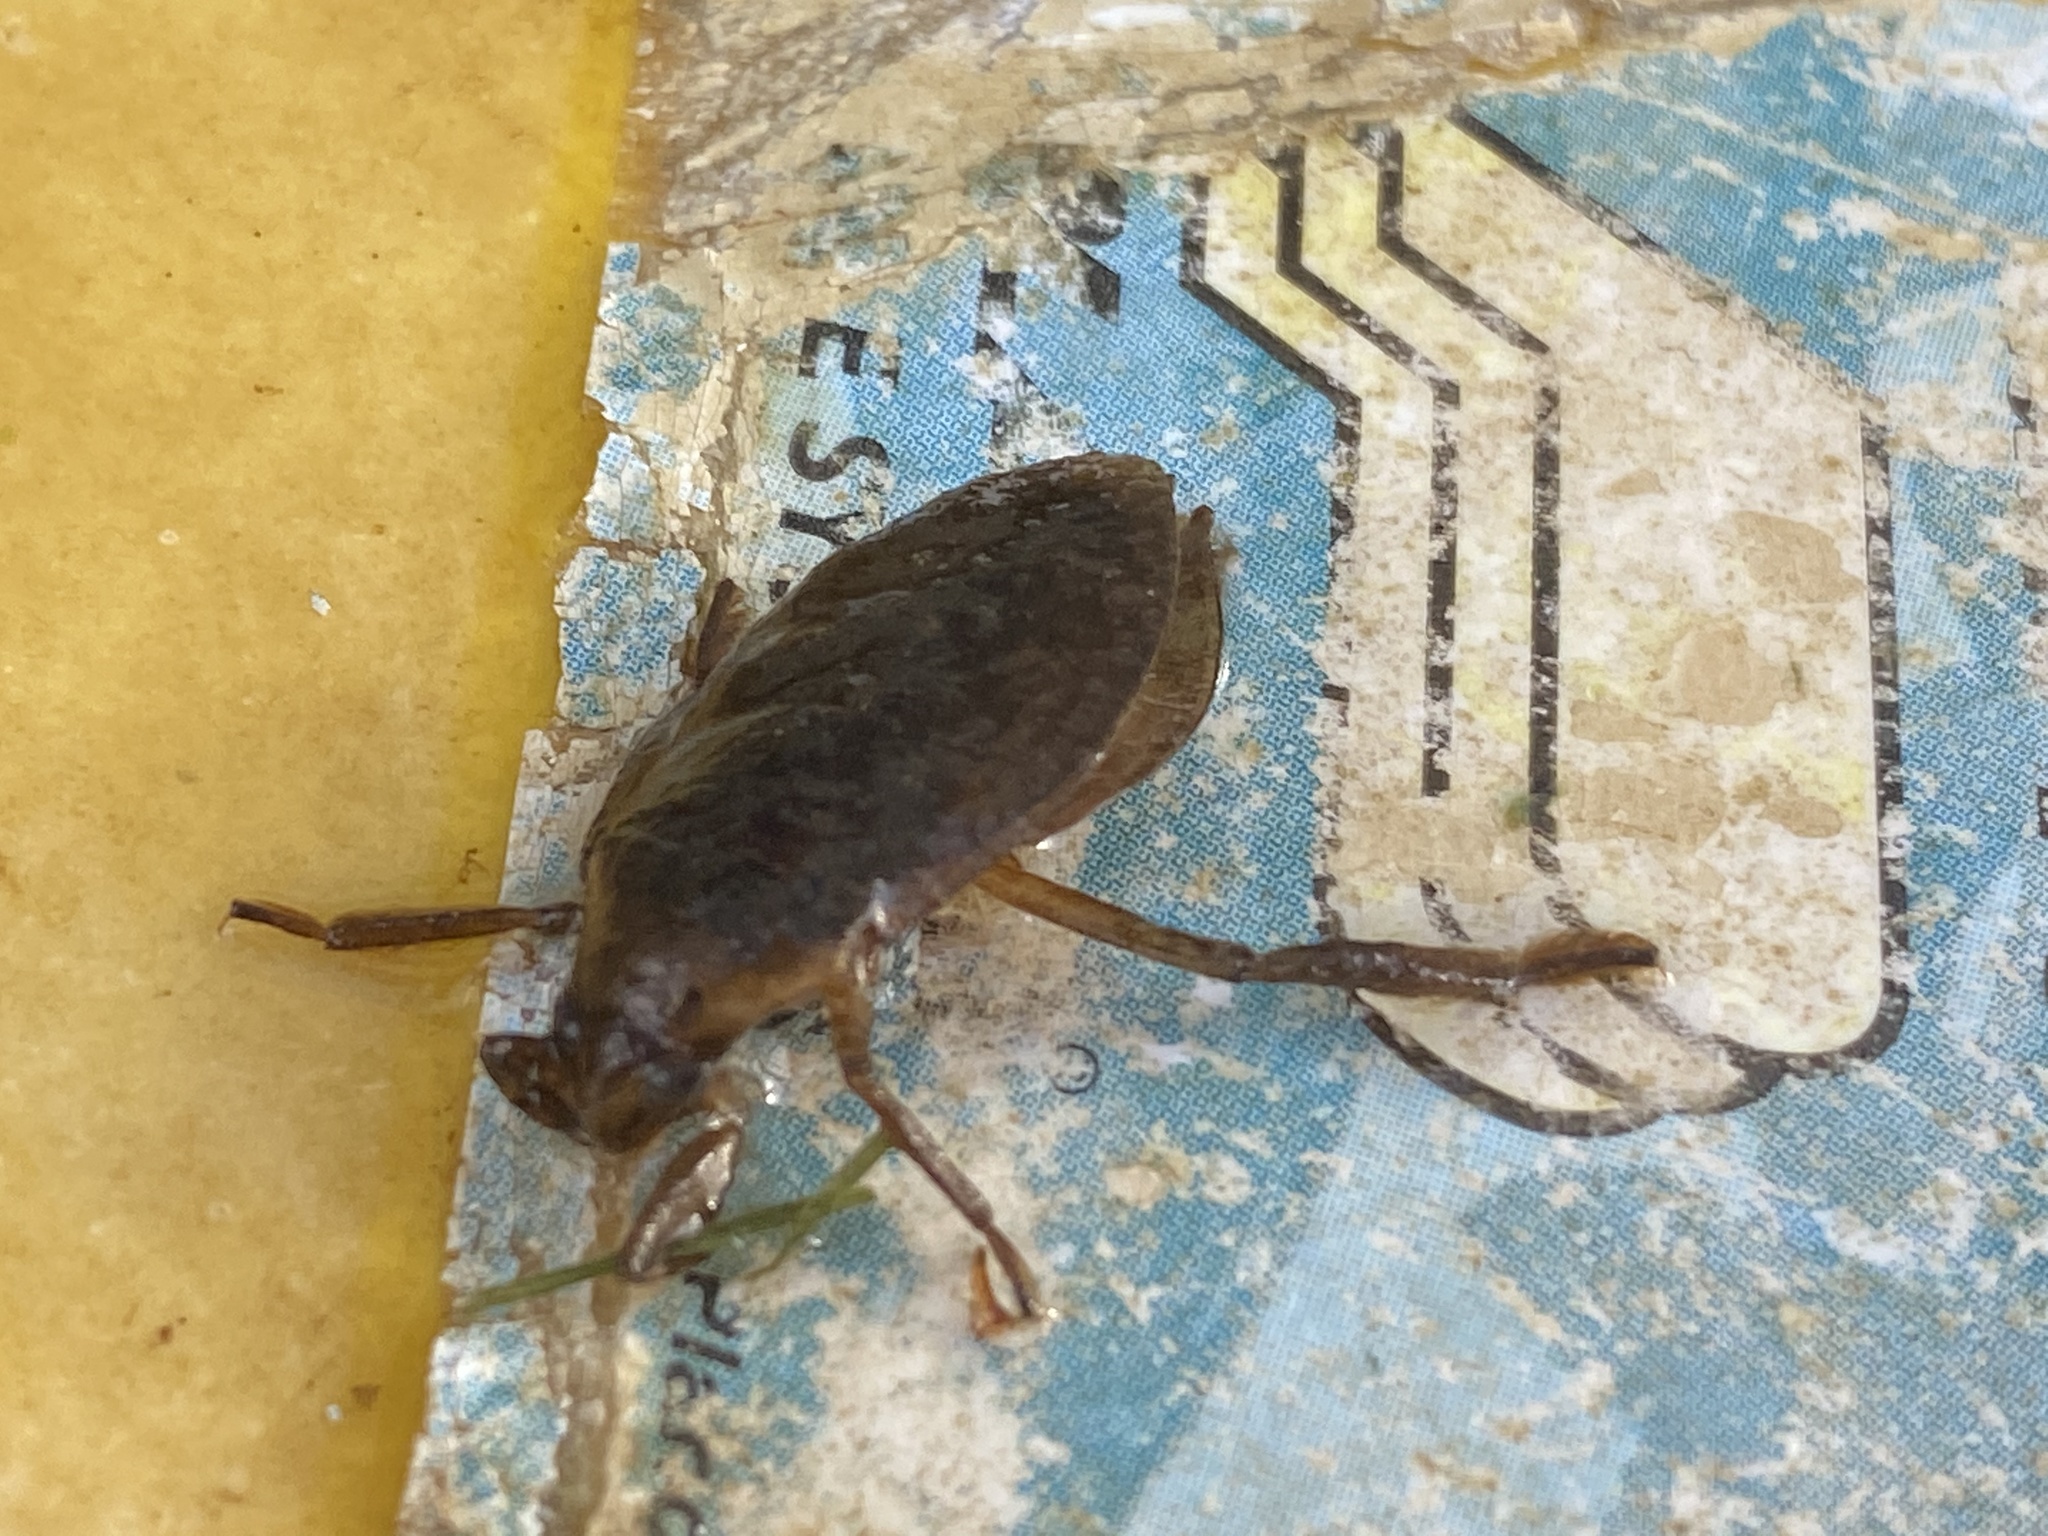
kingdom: Animalia
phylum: Arthropoda
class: Insecta
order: Hemiptera
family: Belostomatidae
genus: Belostoma
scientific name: Belostoma
